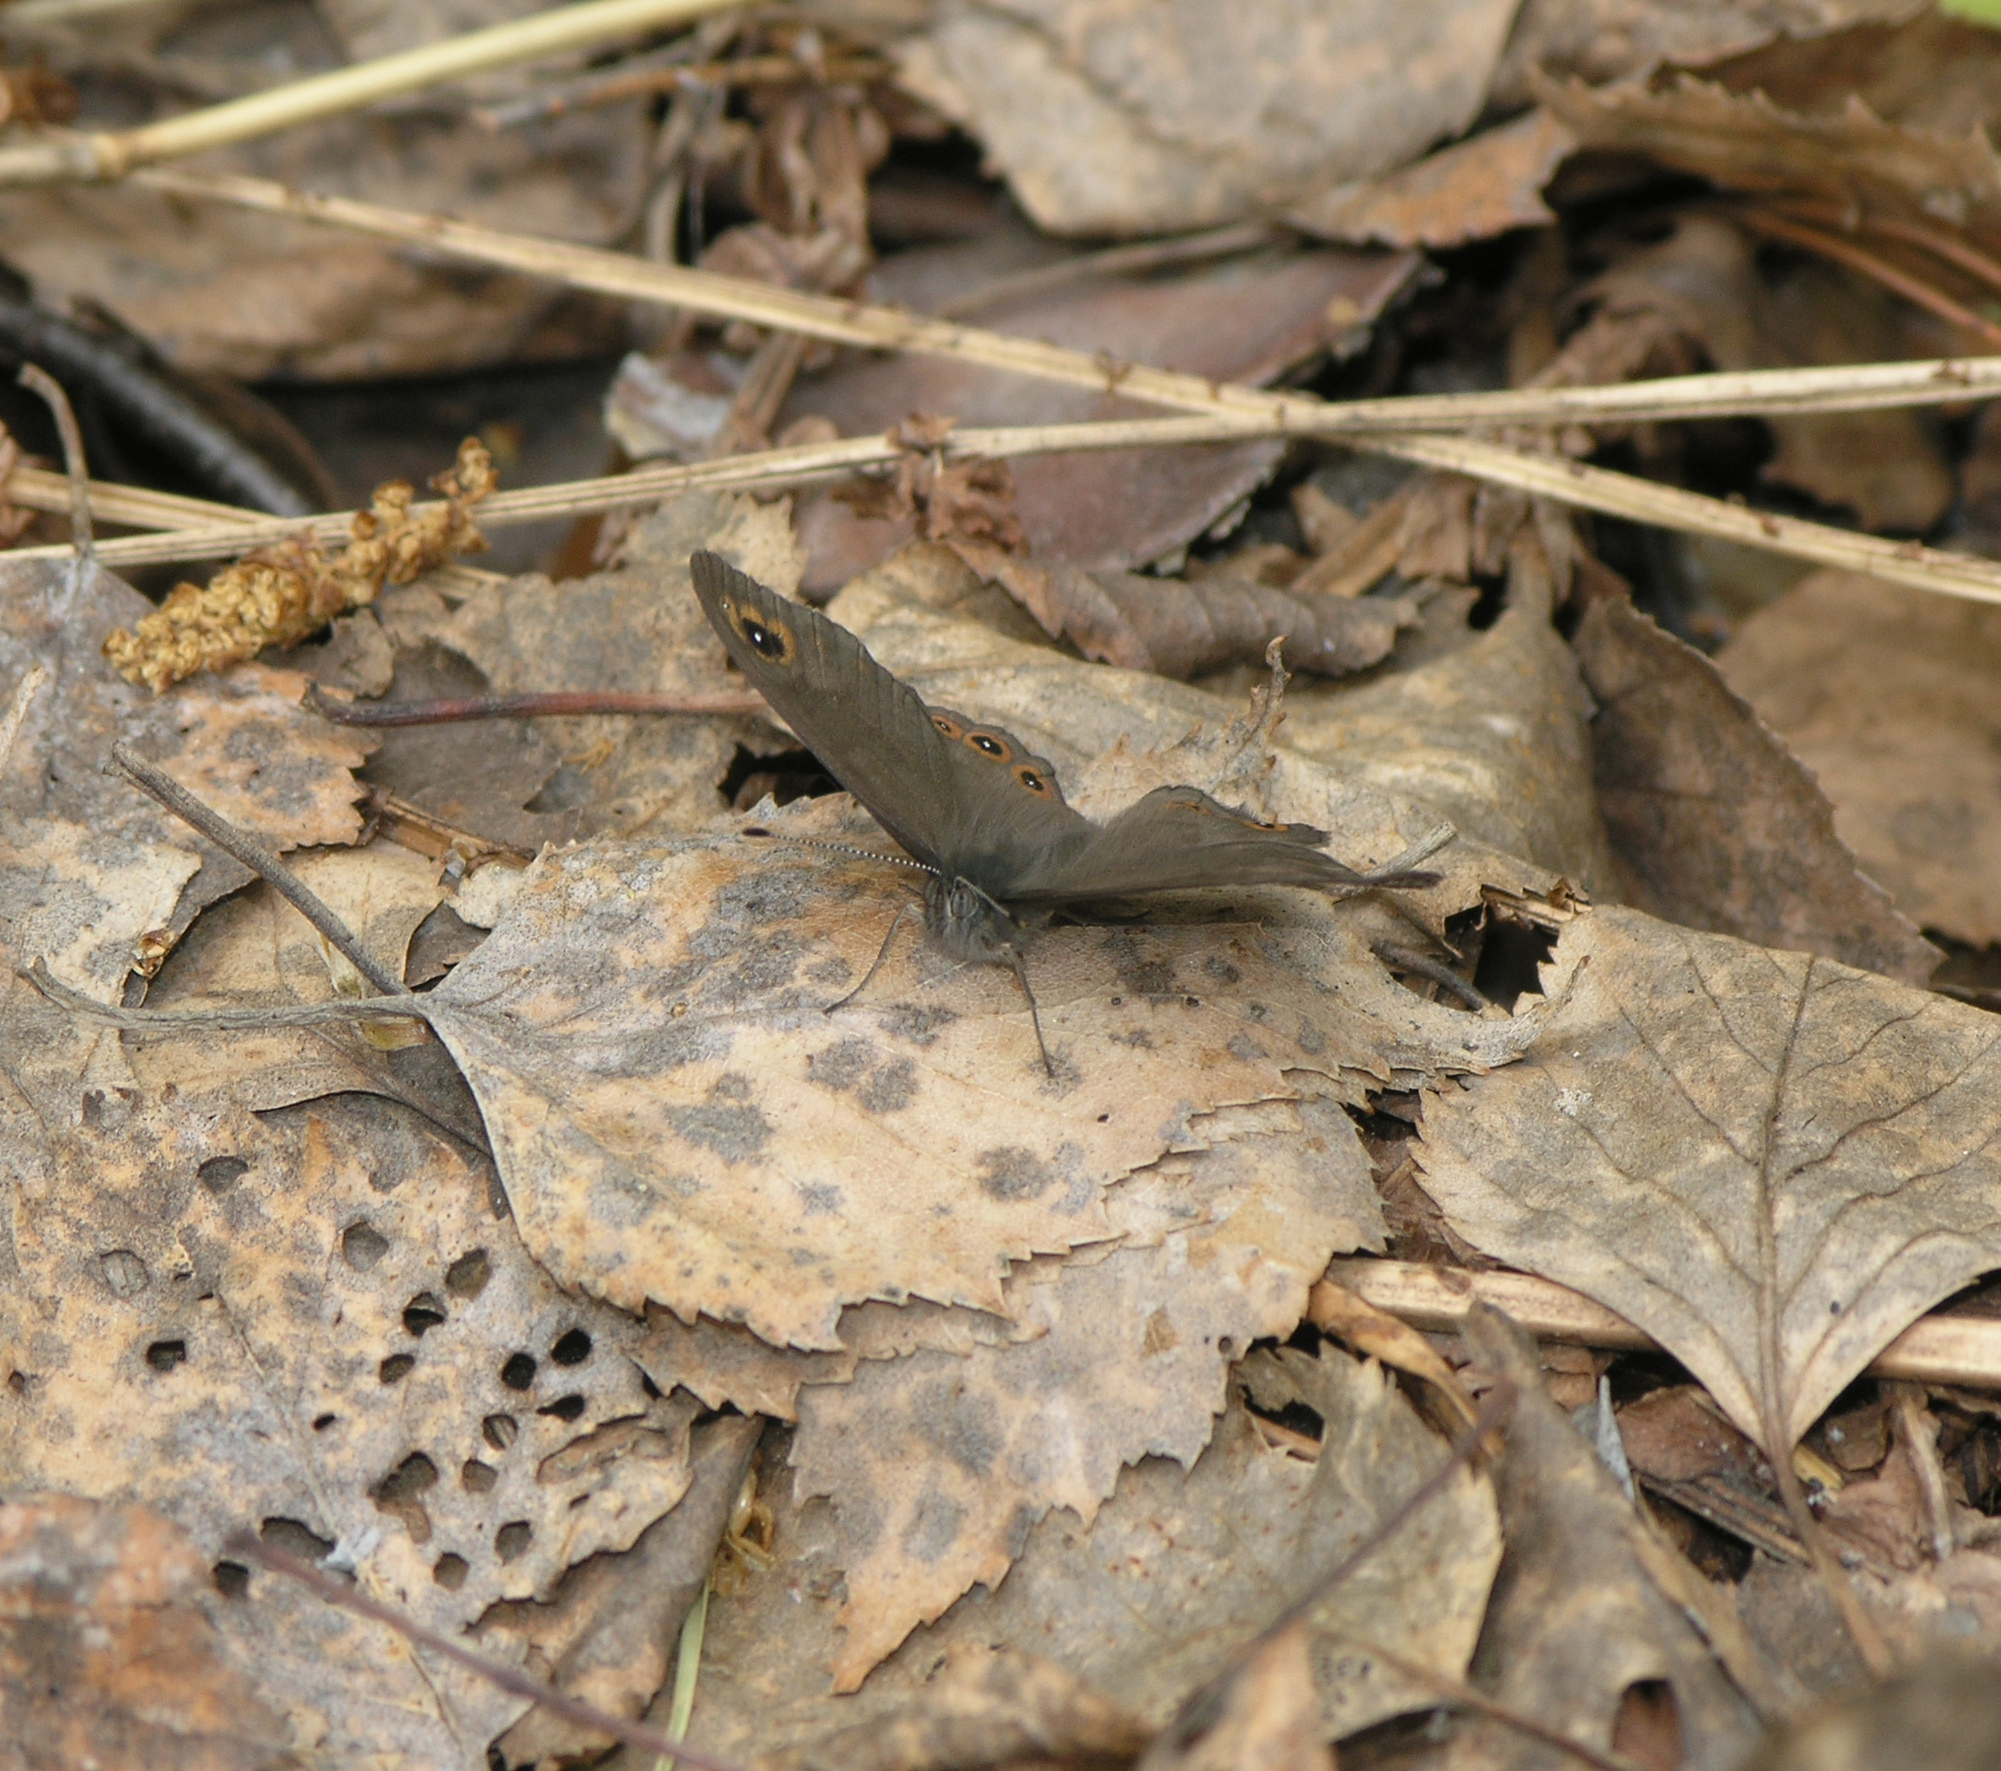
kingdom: Animalia
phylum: Arthropoda
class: Insecta
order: Lepidoptera
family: Nymphalidae
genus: Pararge
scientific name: Pararge petropolitana
